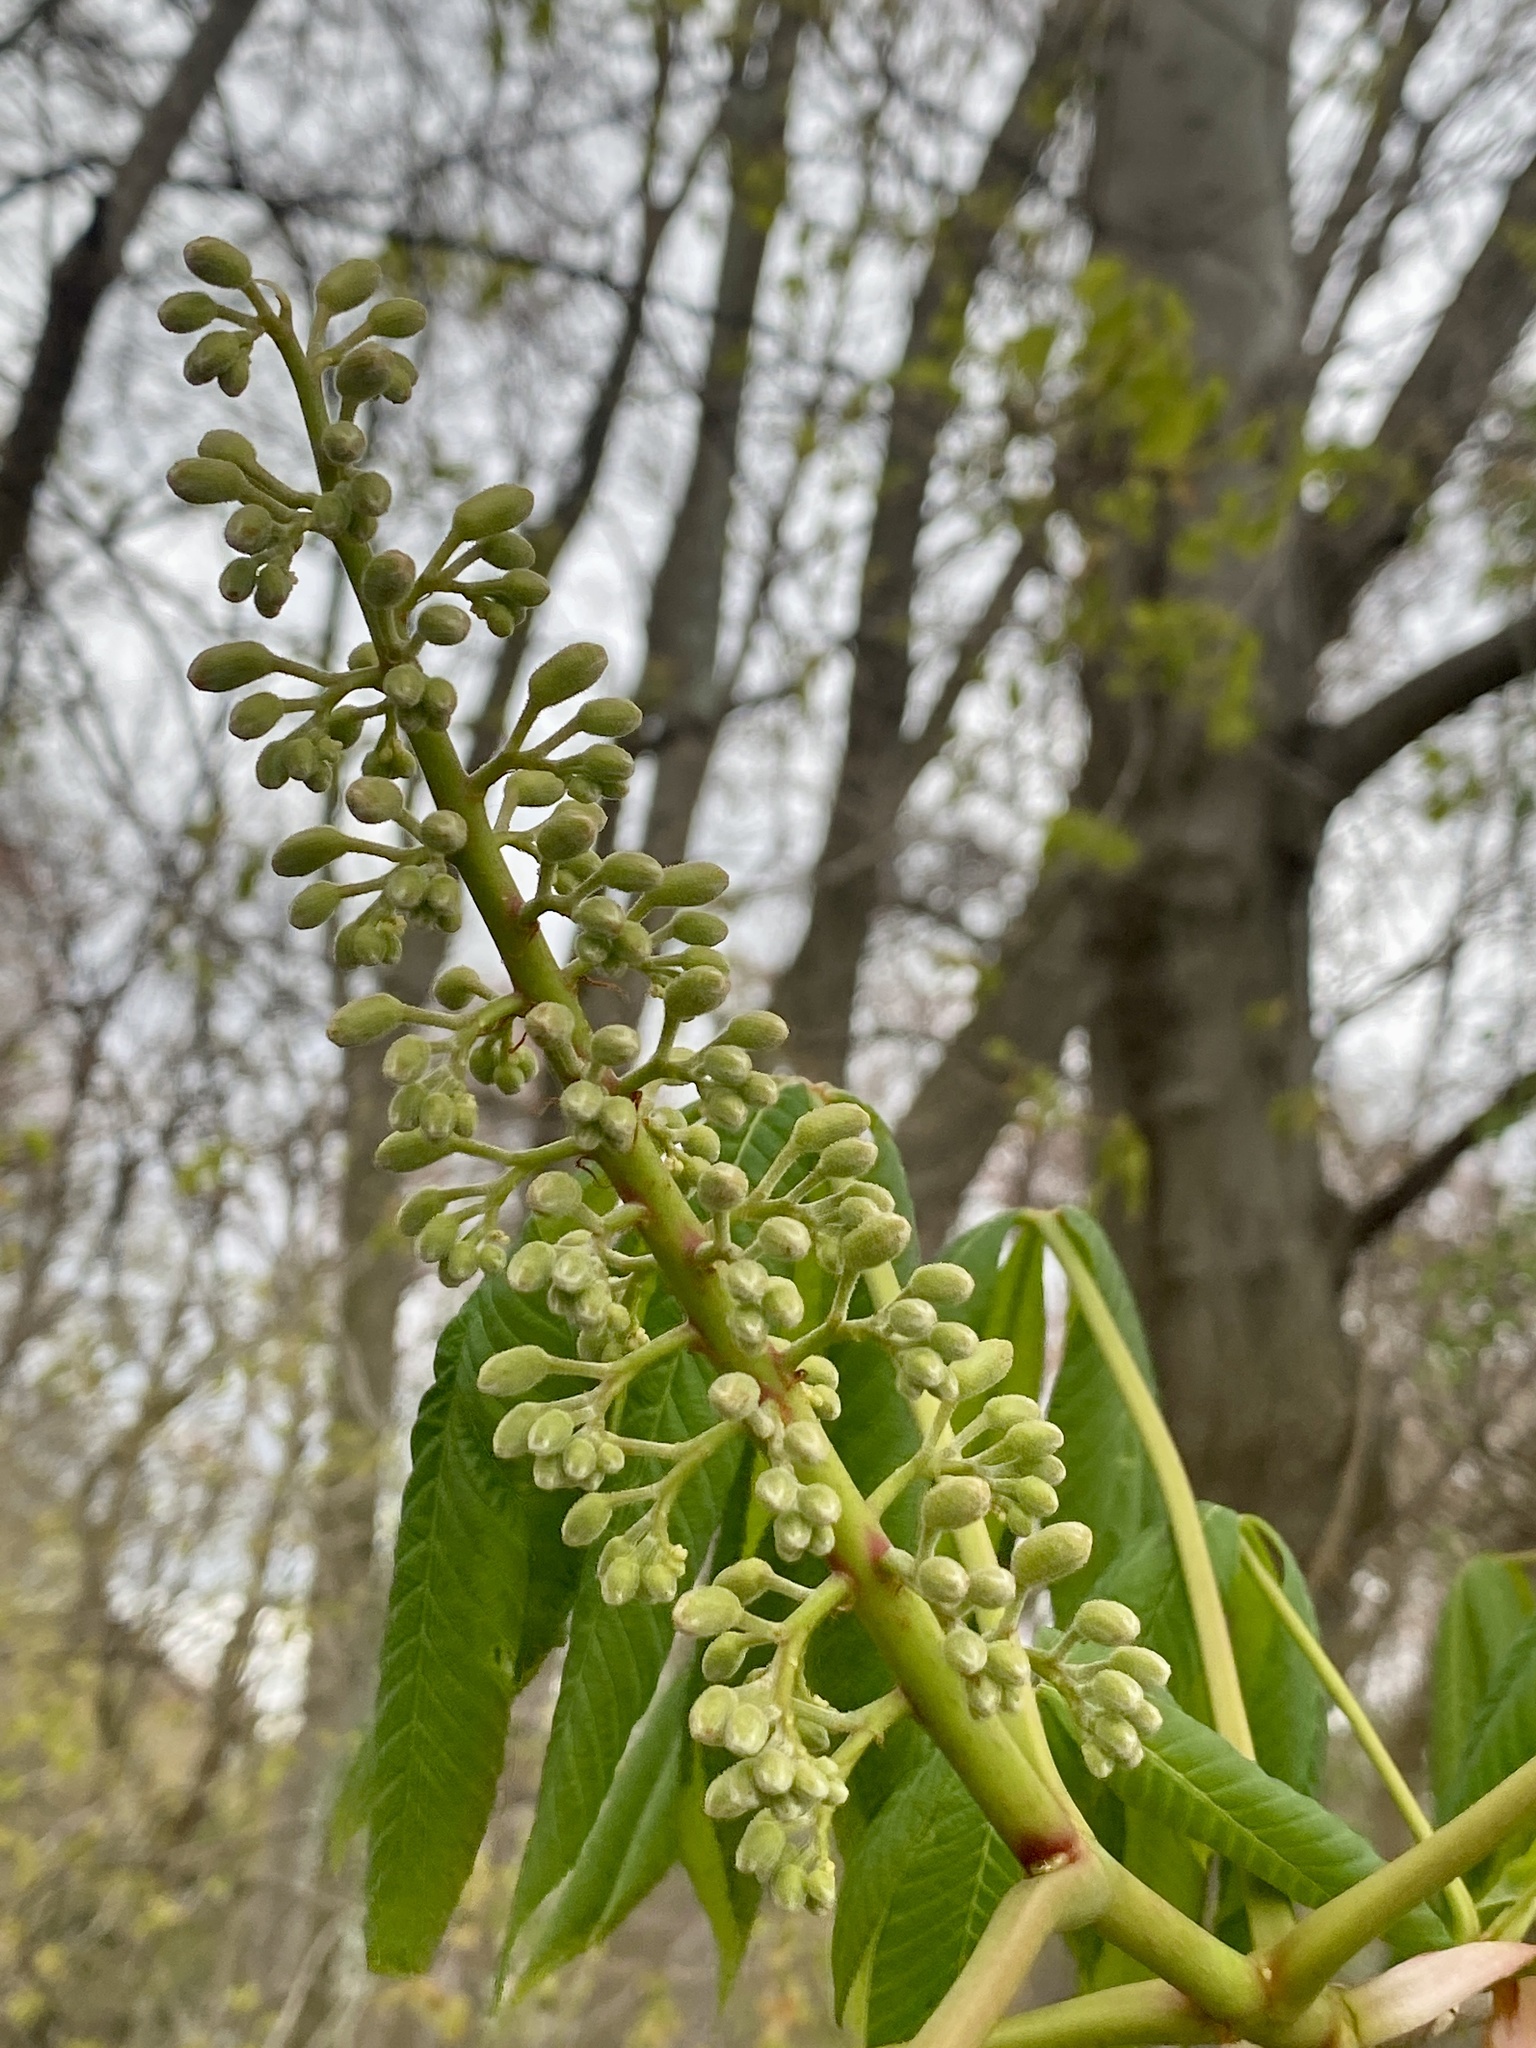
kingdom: Plantae
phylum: Tracheophyta
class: Magnoliopsida
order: Sapindales
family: Sapindaceae
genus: Aesculus
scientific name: Aesculus flava
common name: Yellow buckeye
